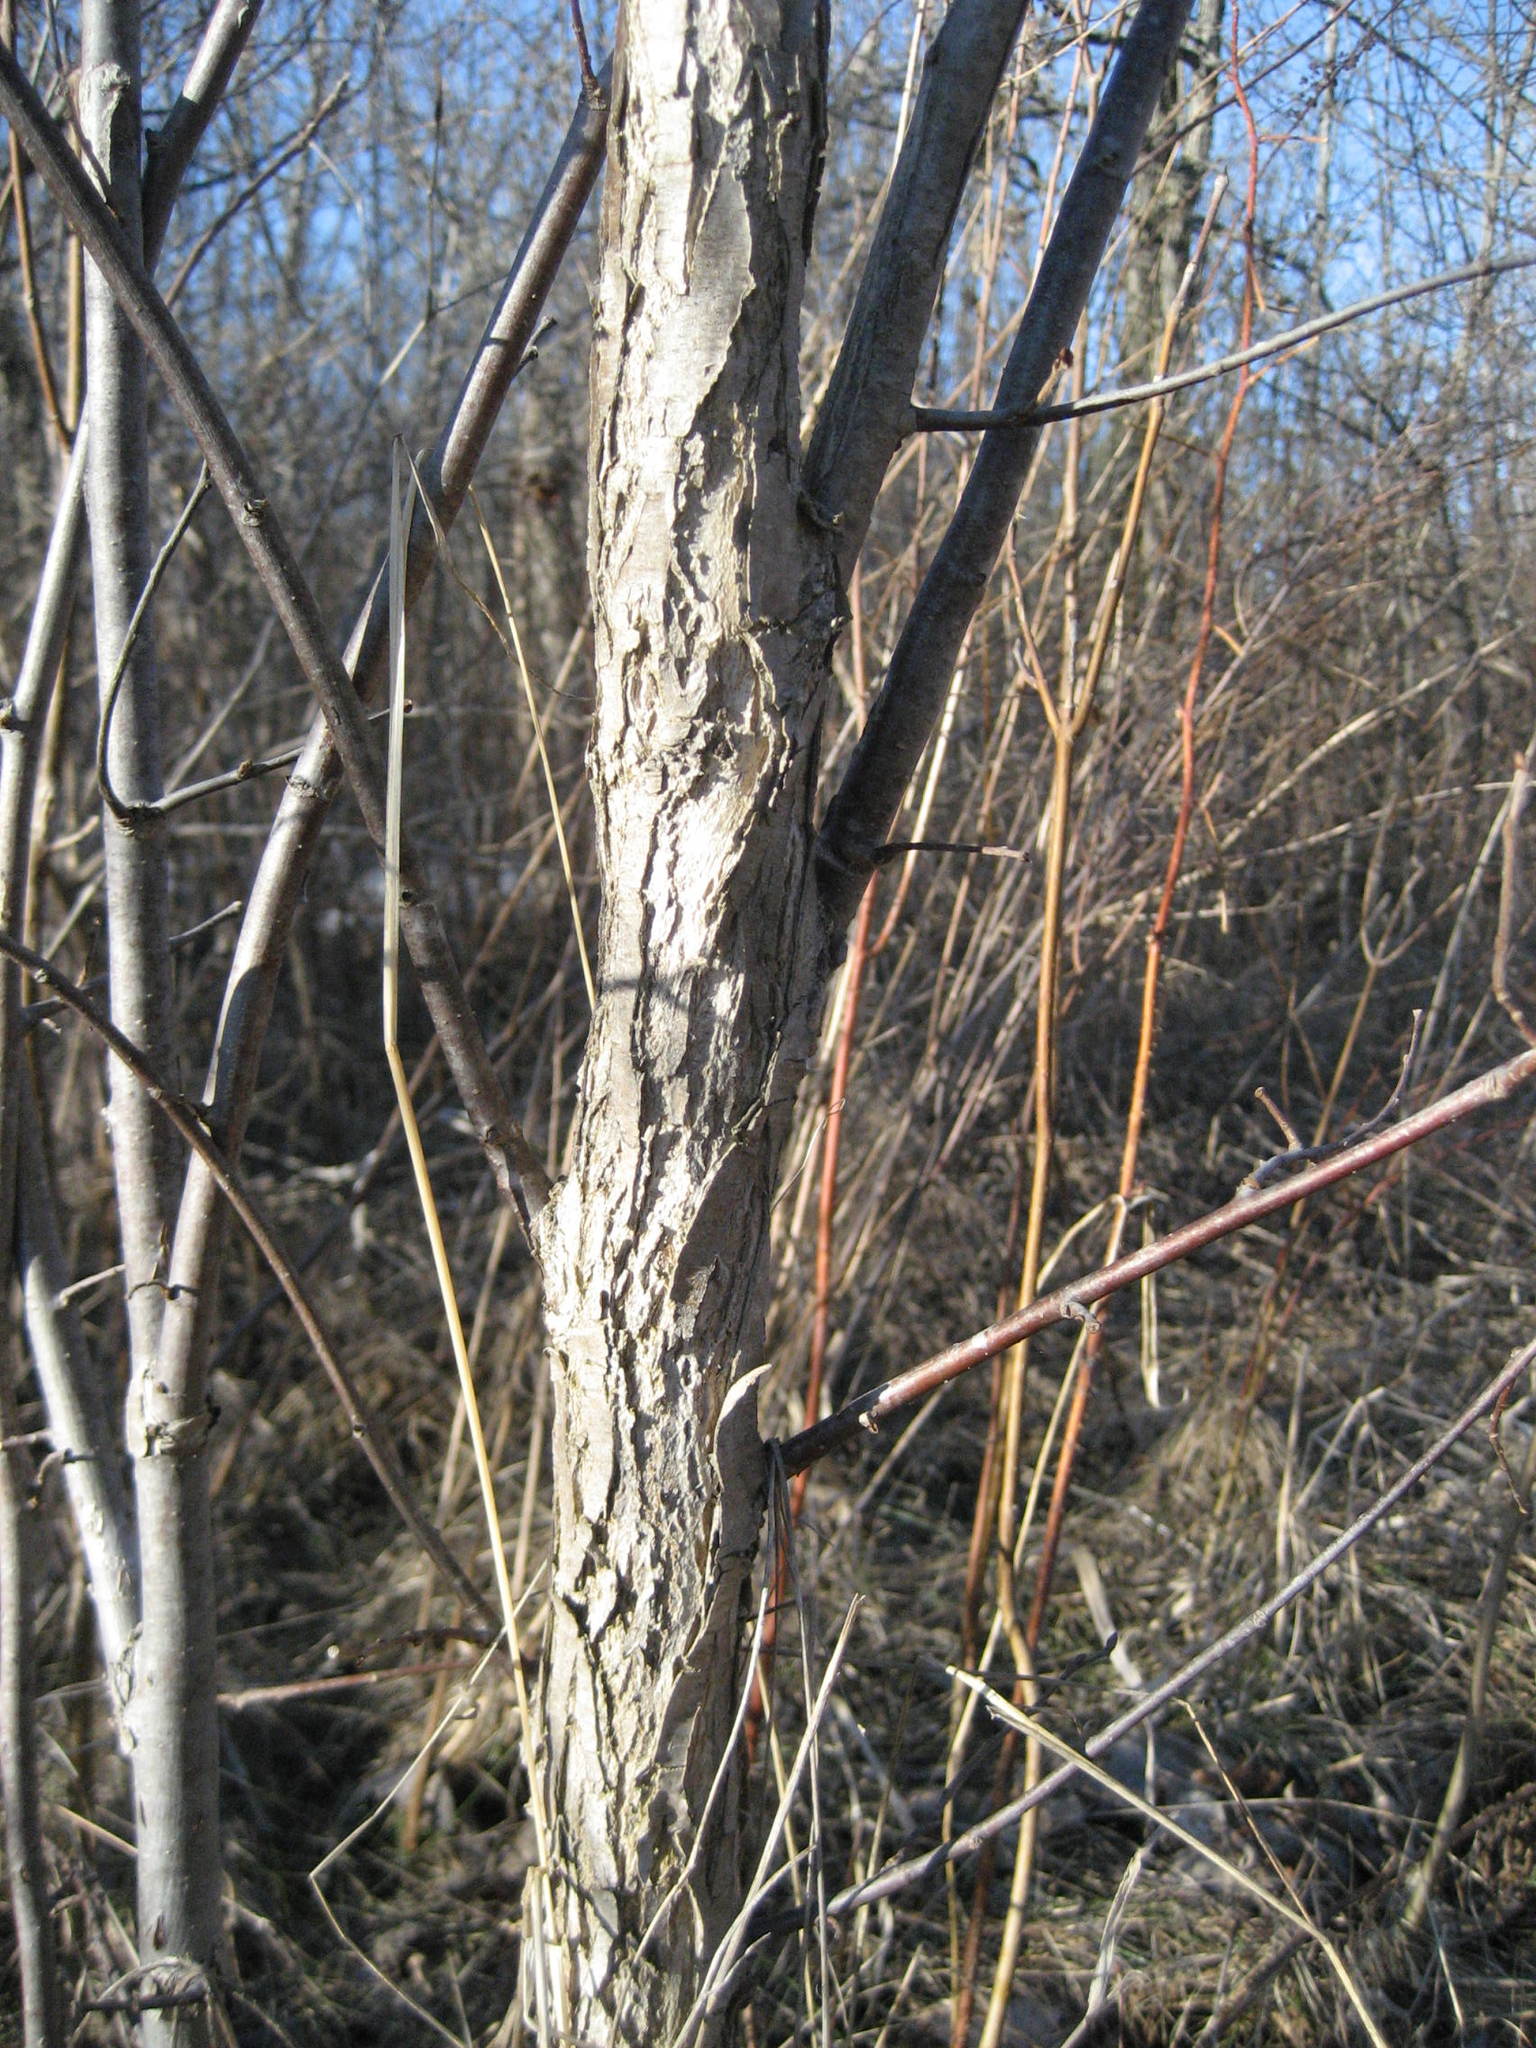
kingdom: Plantae
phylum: Tracheophyta
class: Magnoliopsida
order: Rosales
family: Ulmaceae
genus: Ulmus
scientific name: Ulmus americana
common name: American elm
